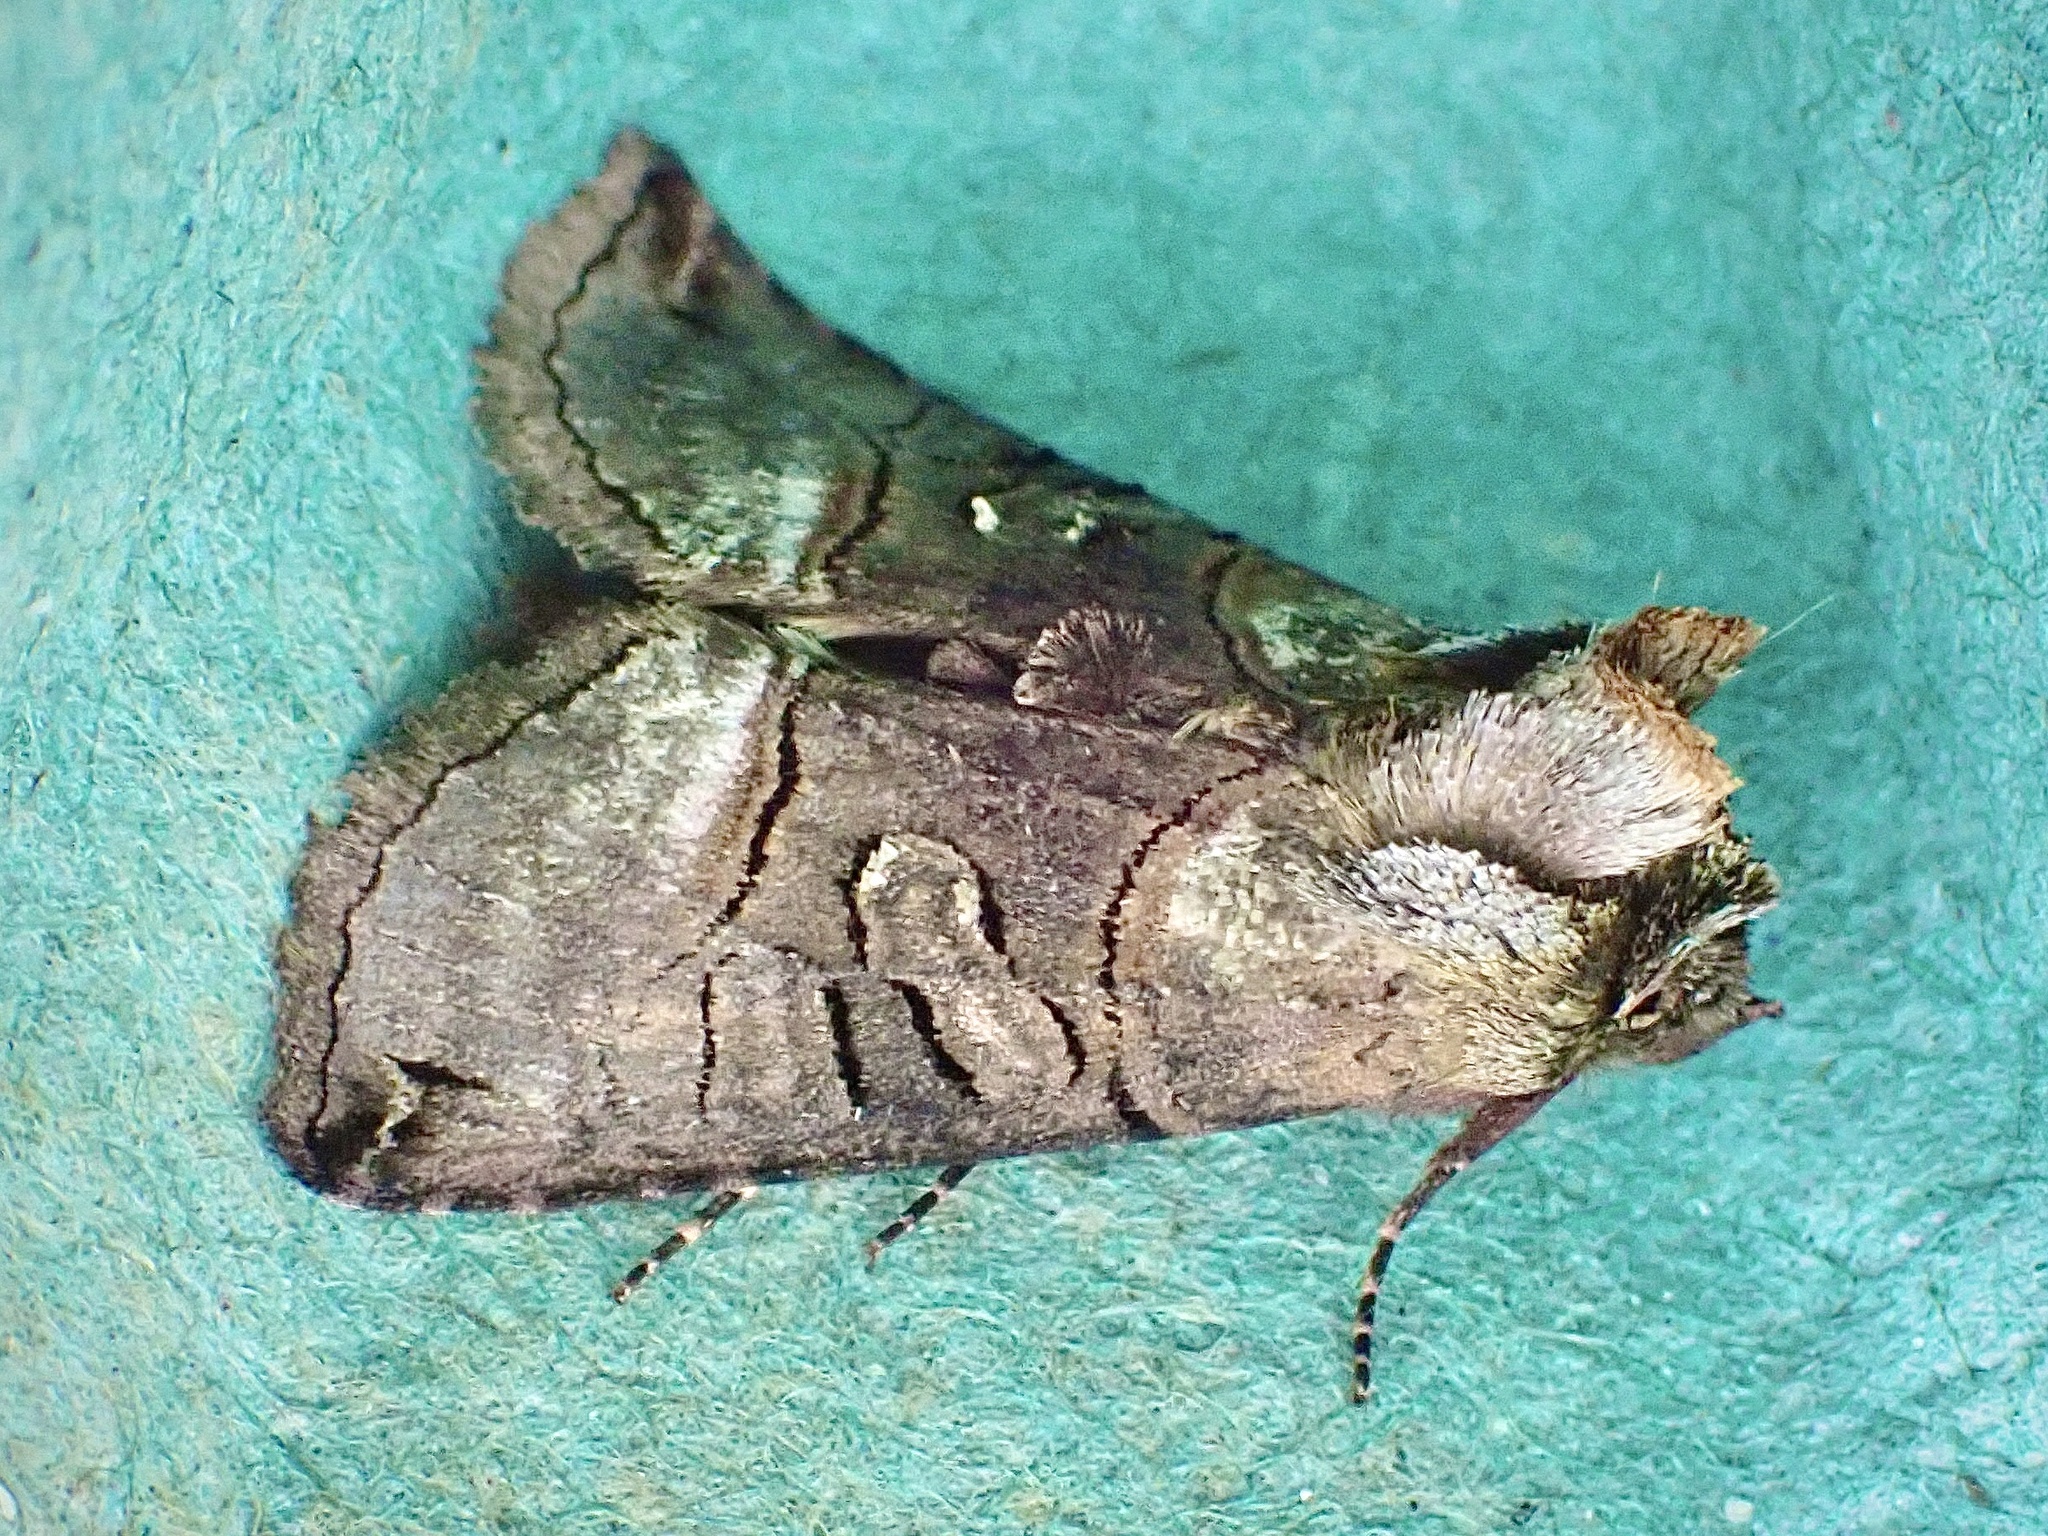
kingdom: Animalia
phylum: Arthropoda
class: Insecta
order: Lepidoptera
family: Noctuidae
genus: Abrostola
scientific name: Abrostola tripartita
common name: Spectacle
